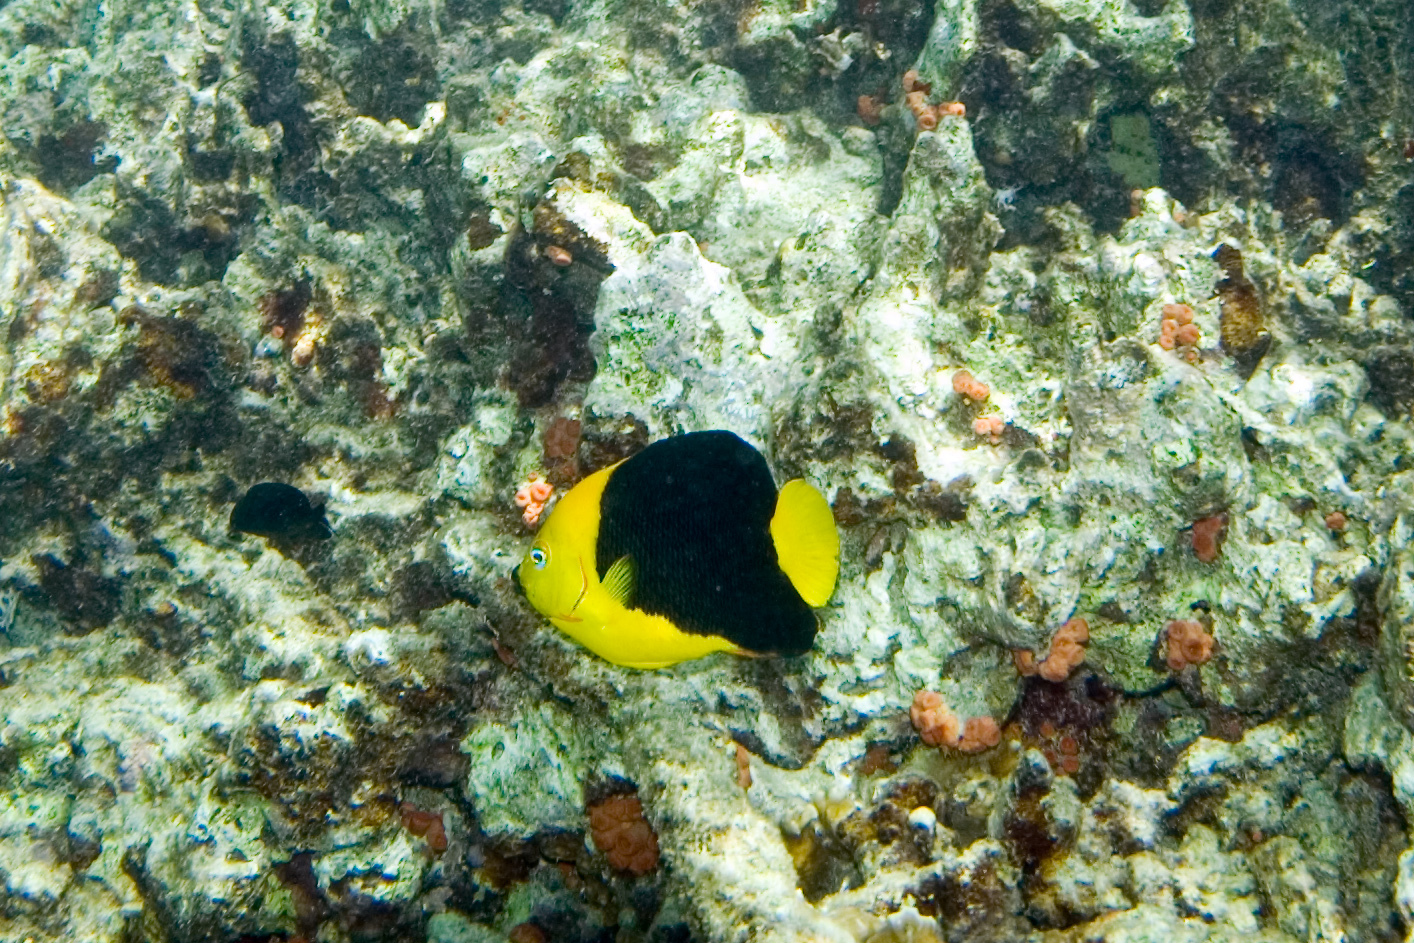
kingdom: Animalia
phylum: Chordata
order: Perciformes
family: Pomacanthidae
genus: Holacanthus
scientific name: Holacanthus tricolor
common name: Rock beauty
